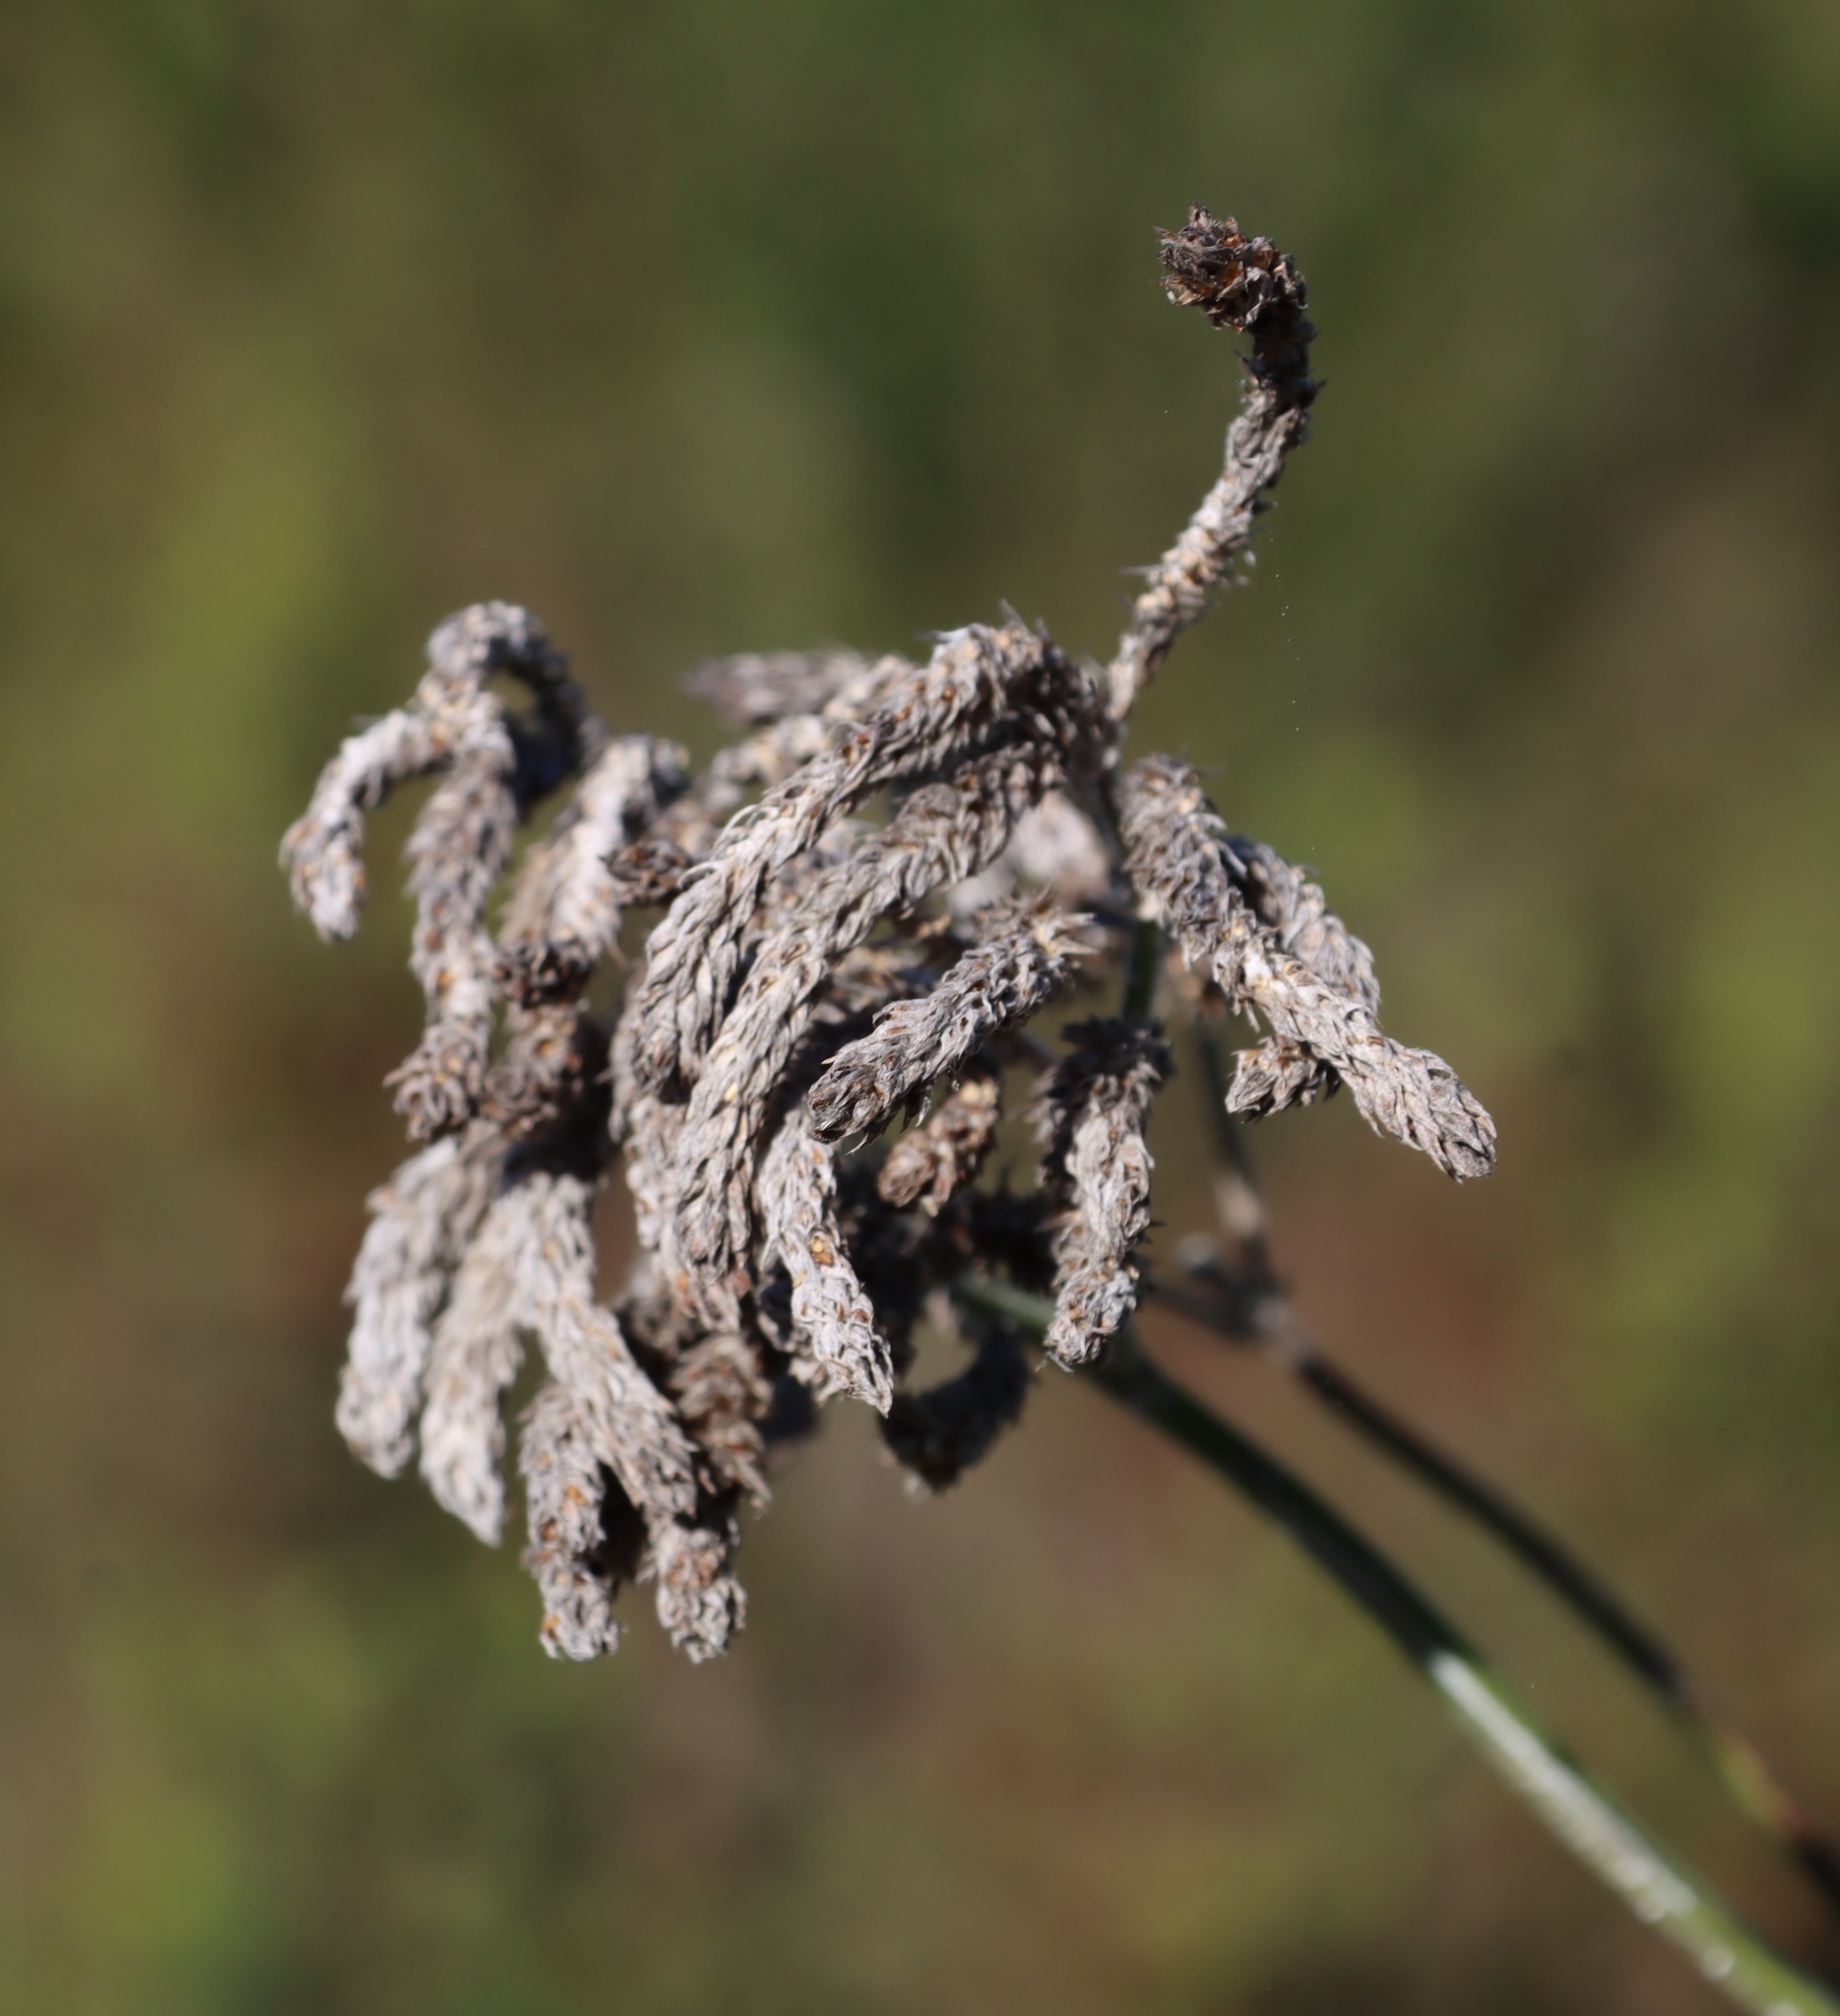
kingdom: Plantae
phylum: Tracheophyta
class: Magnoliopsida
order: Lamiales
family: Verbenaceae
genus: Verbena
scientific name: Verbena bonariensis
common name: Purpletop vervain
